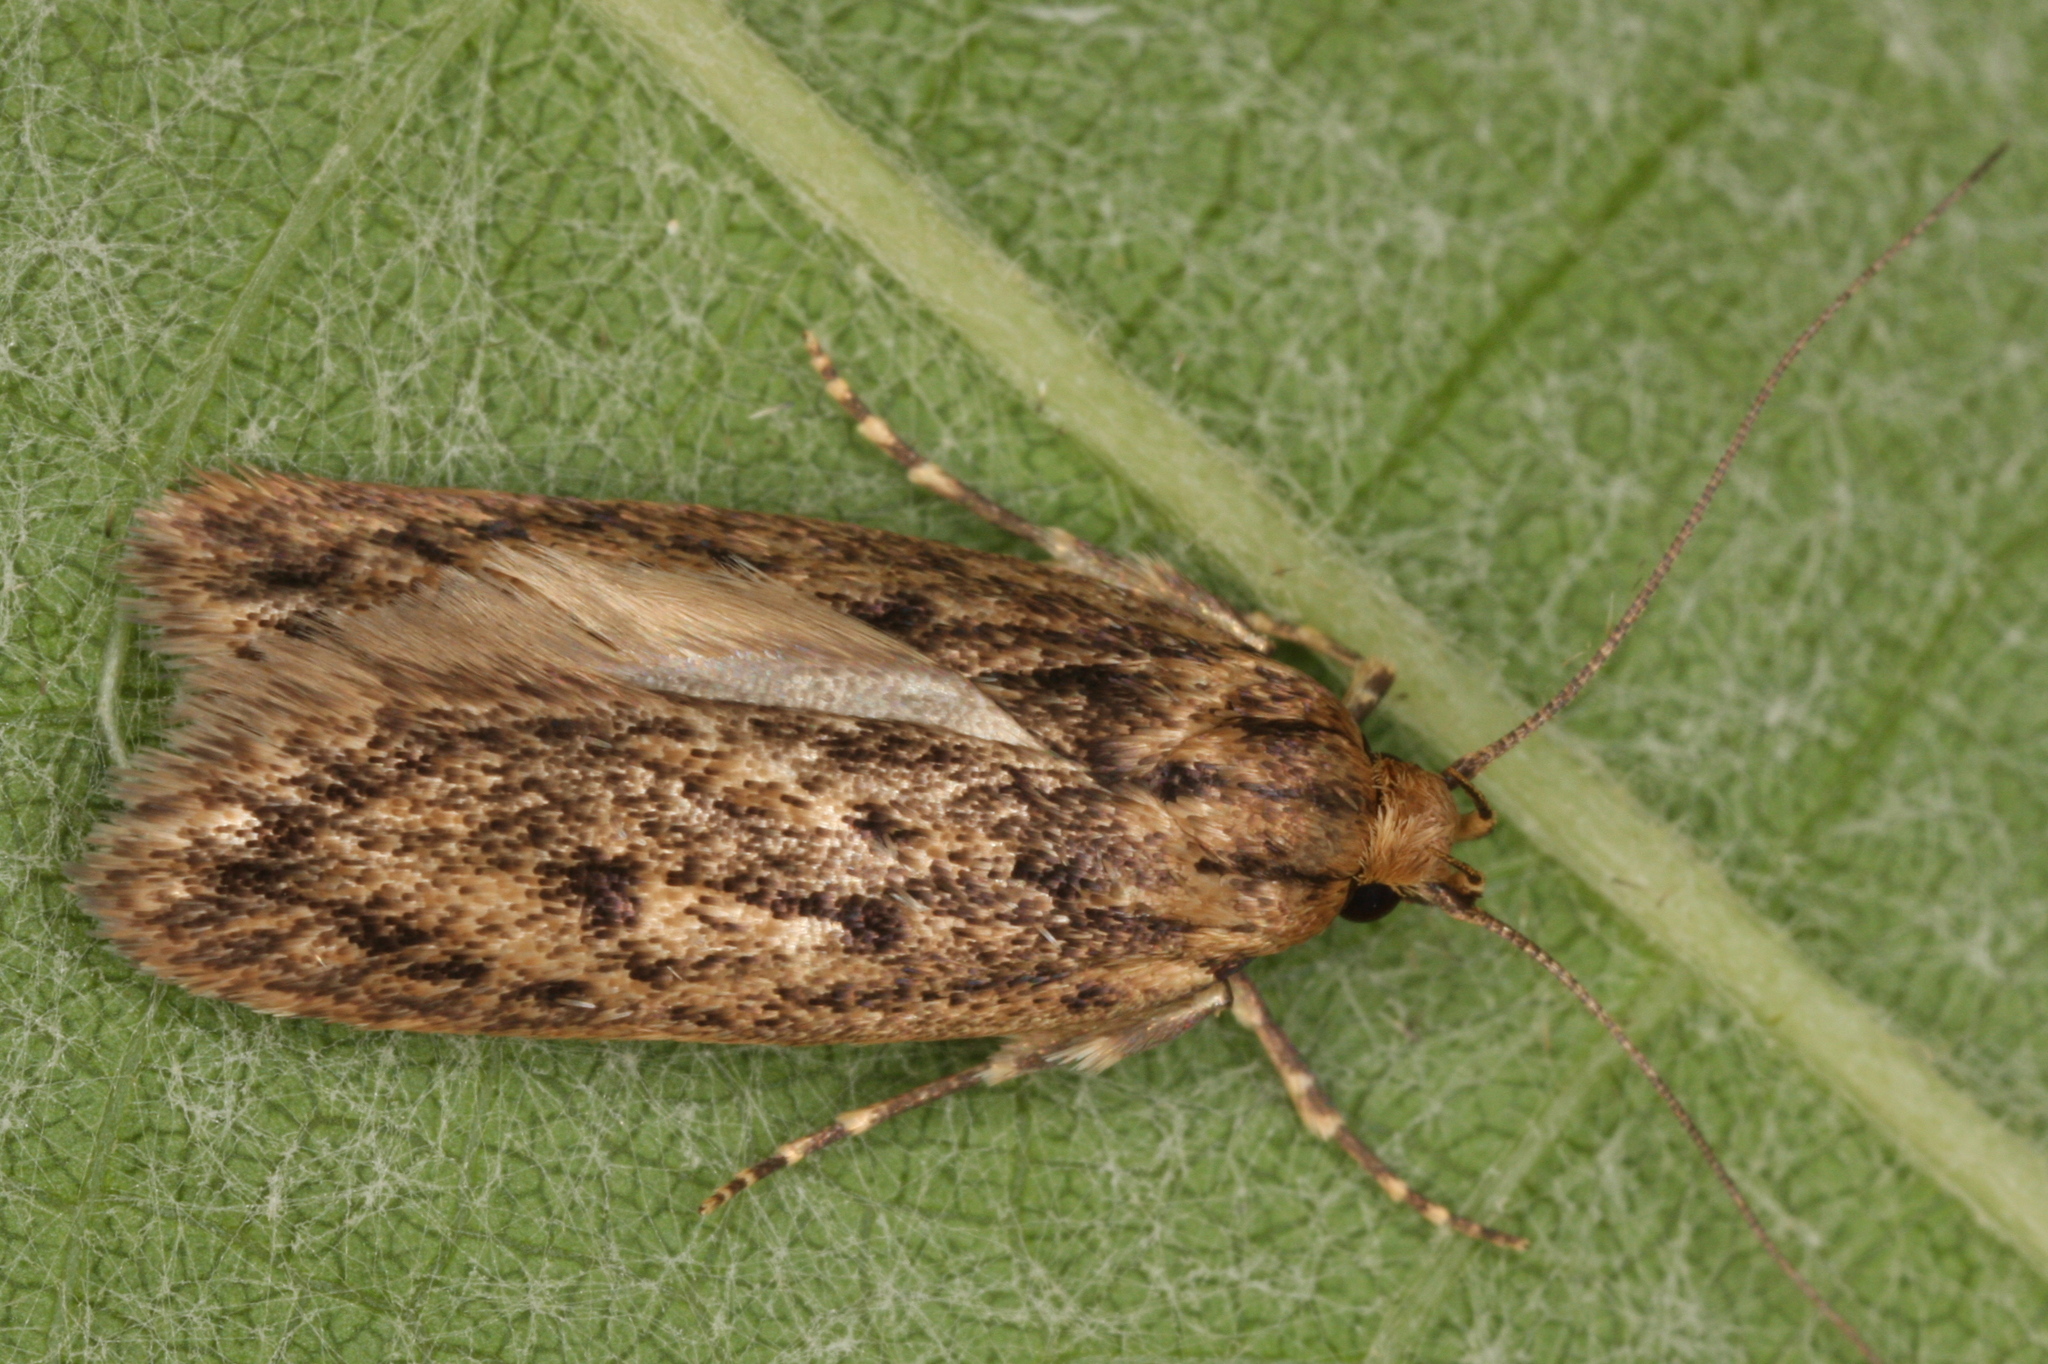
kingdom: Animalia
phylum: Arthropoda
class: Insecta
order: Lepidoptera
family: Oecophoridae
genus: Hofmannophila
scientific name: Hofmannophila pseudospretella
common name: Brown house moth
